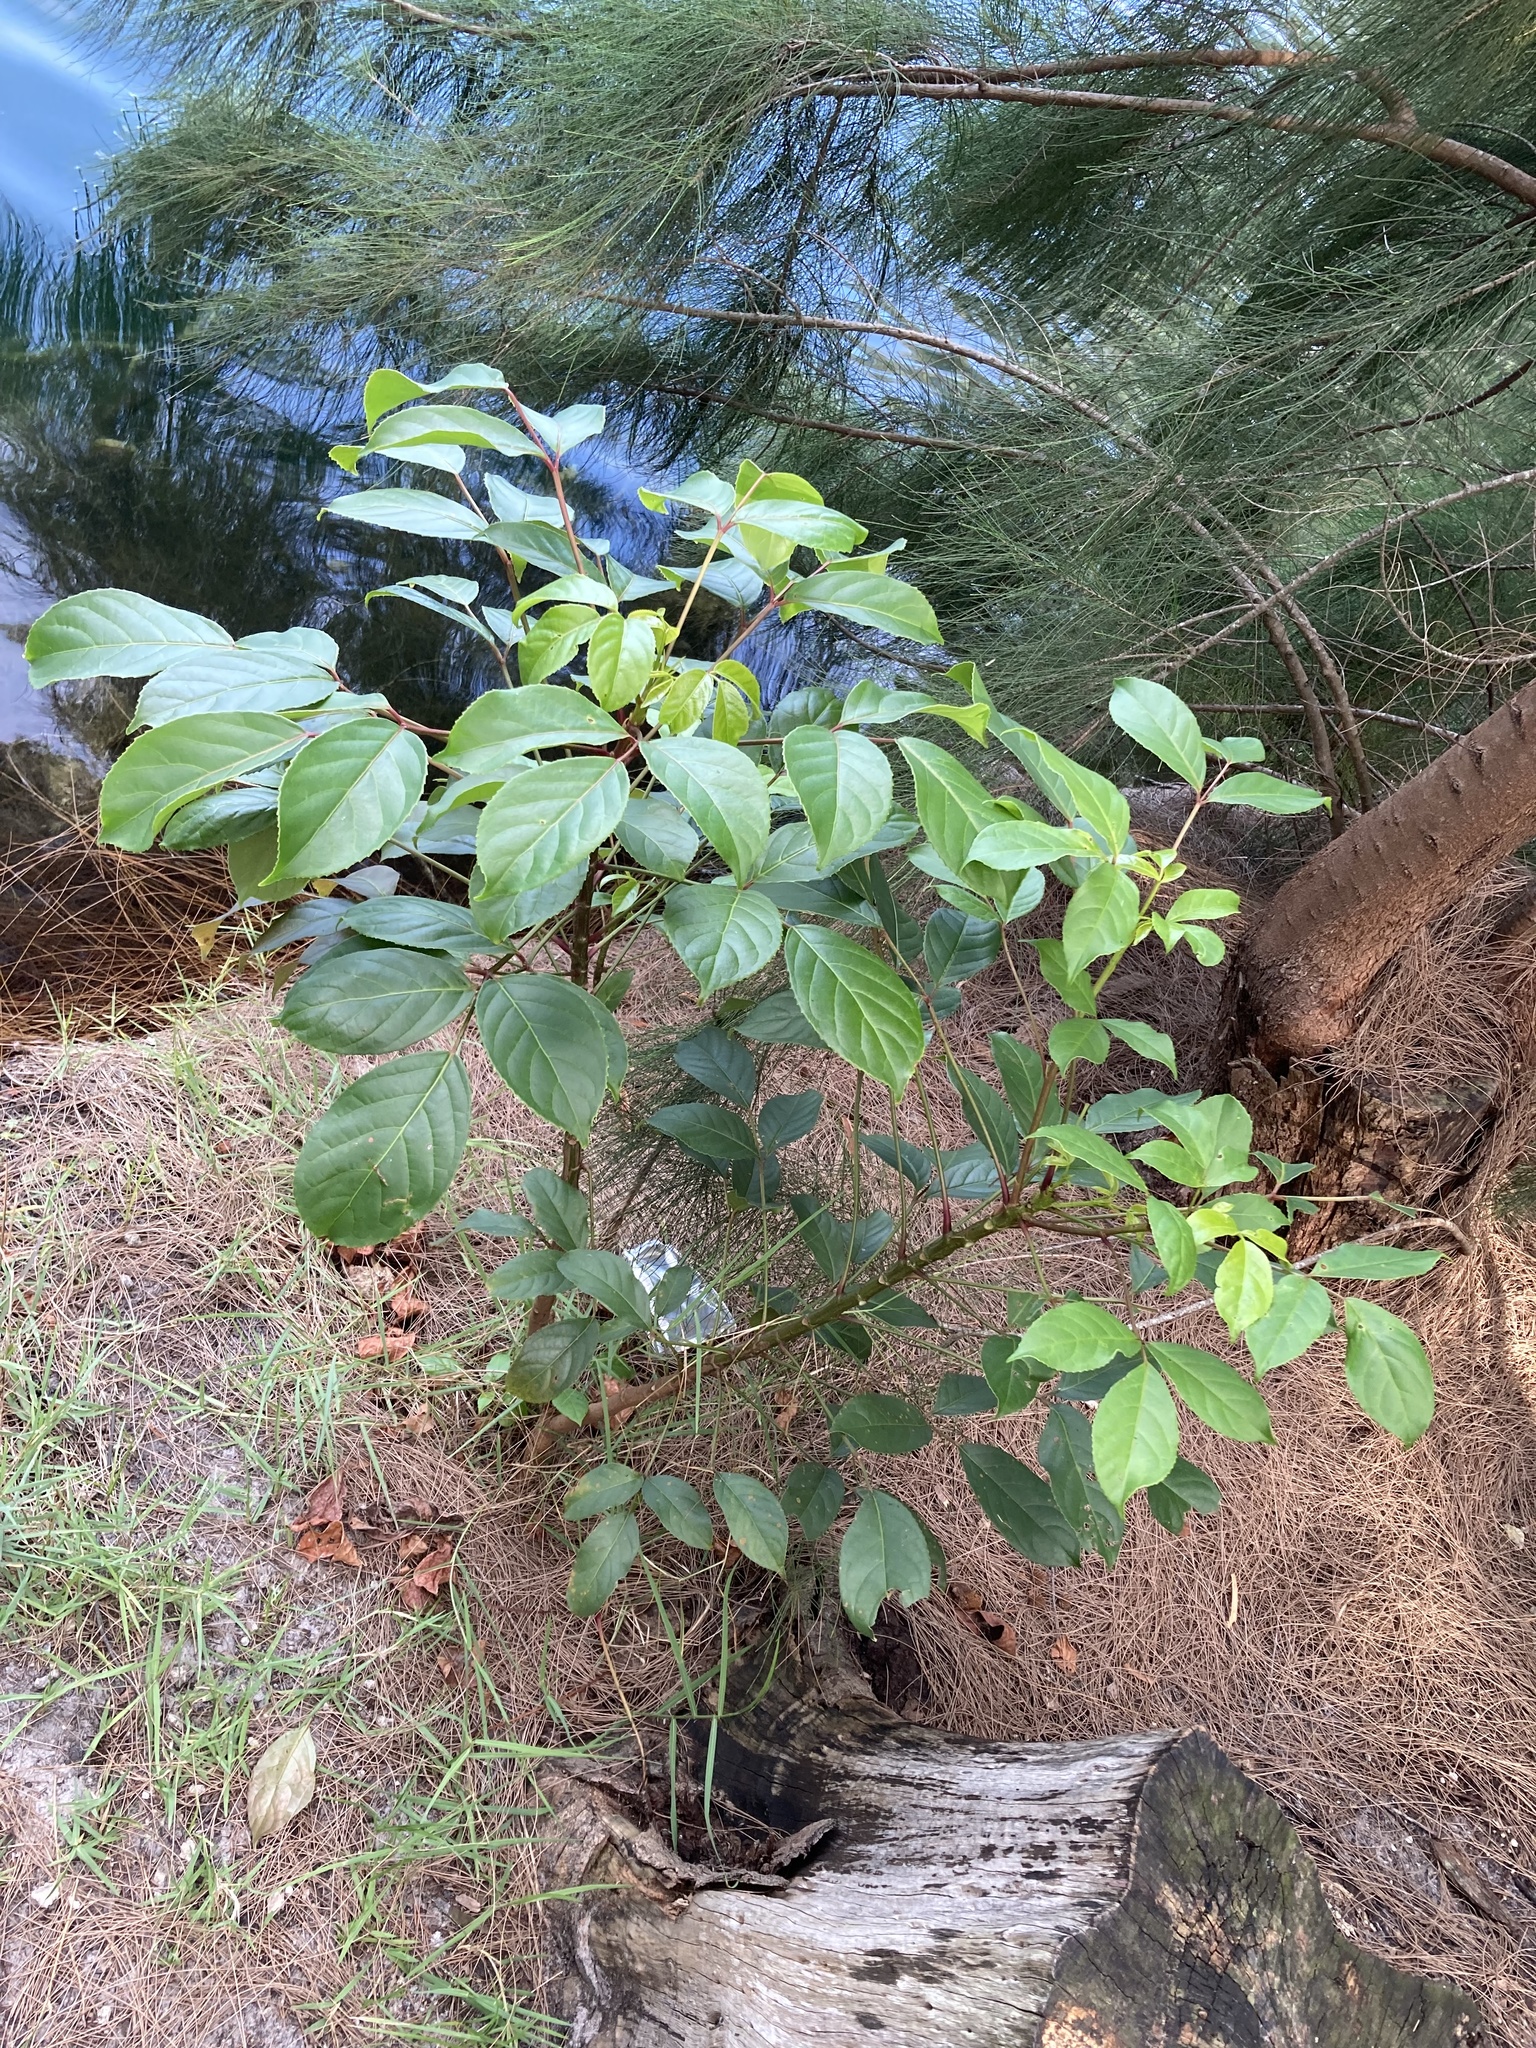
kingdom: Plantae
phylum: Tracheophyta
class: Magnoliopsida
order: Malpighiales
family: Phyllanthaceae
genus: Bischofia
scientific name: Bischofia javanica
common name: Javanese bishopwood
